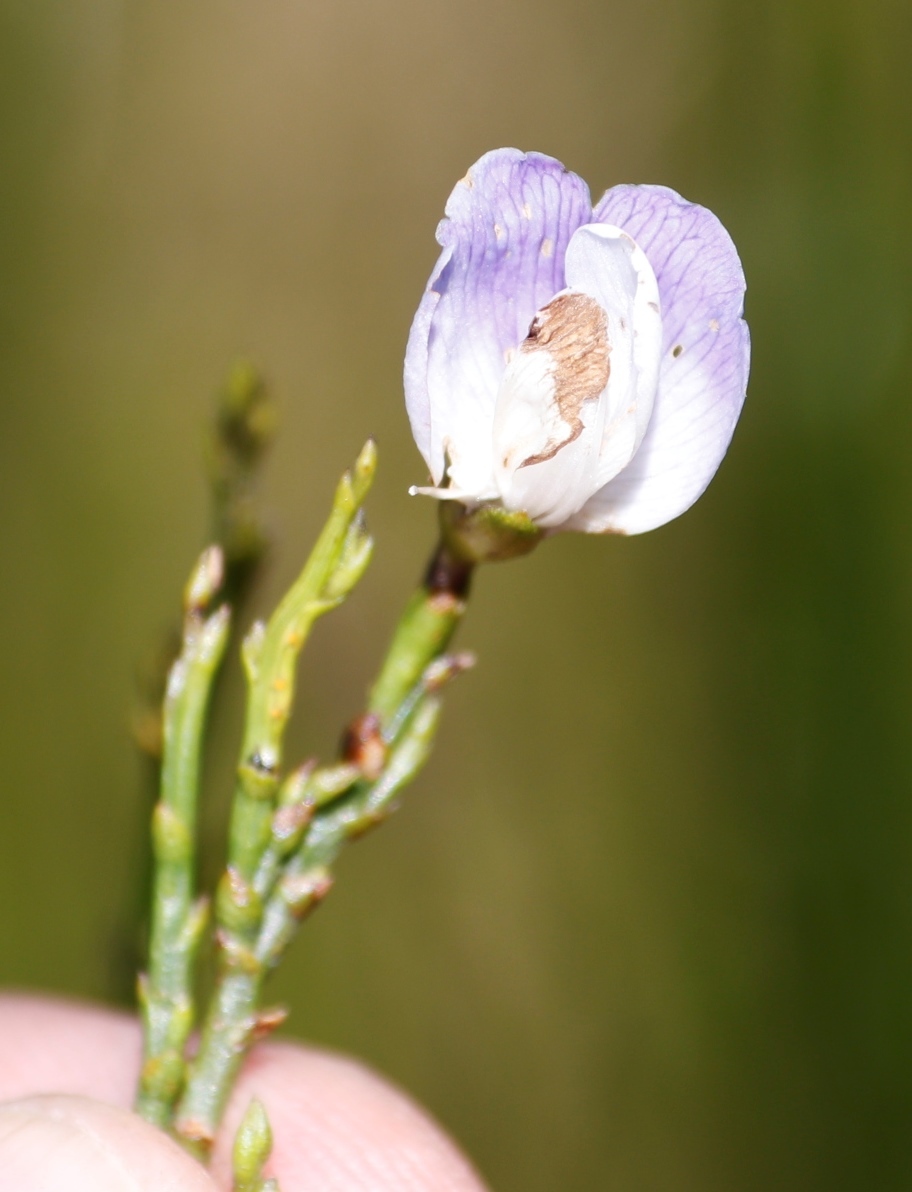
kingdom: Plantae
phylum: Tracheophyta
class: Magnoliopsida
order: Fabales
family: Fabaceae
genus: Psoralea
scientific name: Psoralea usitata
